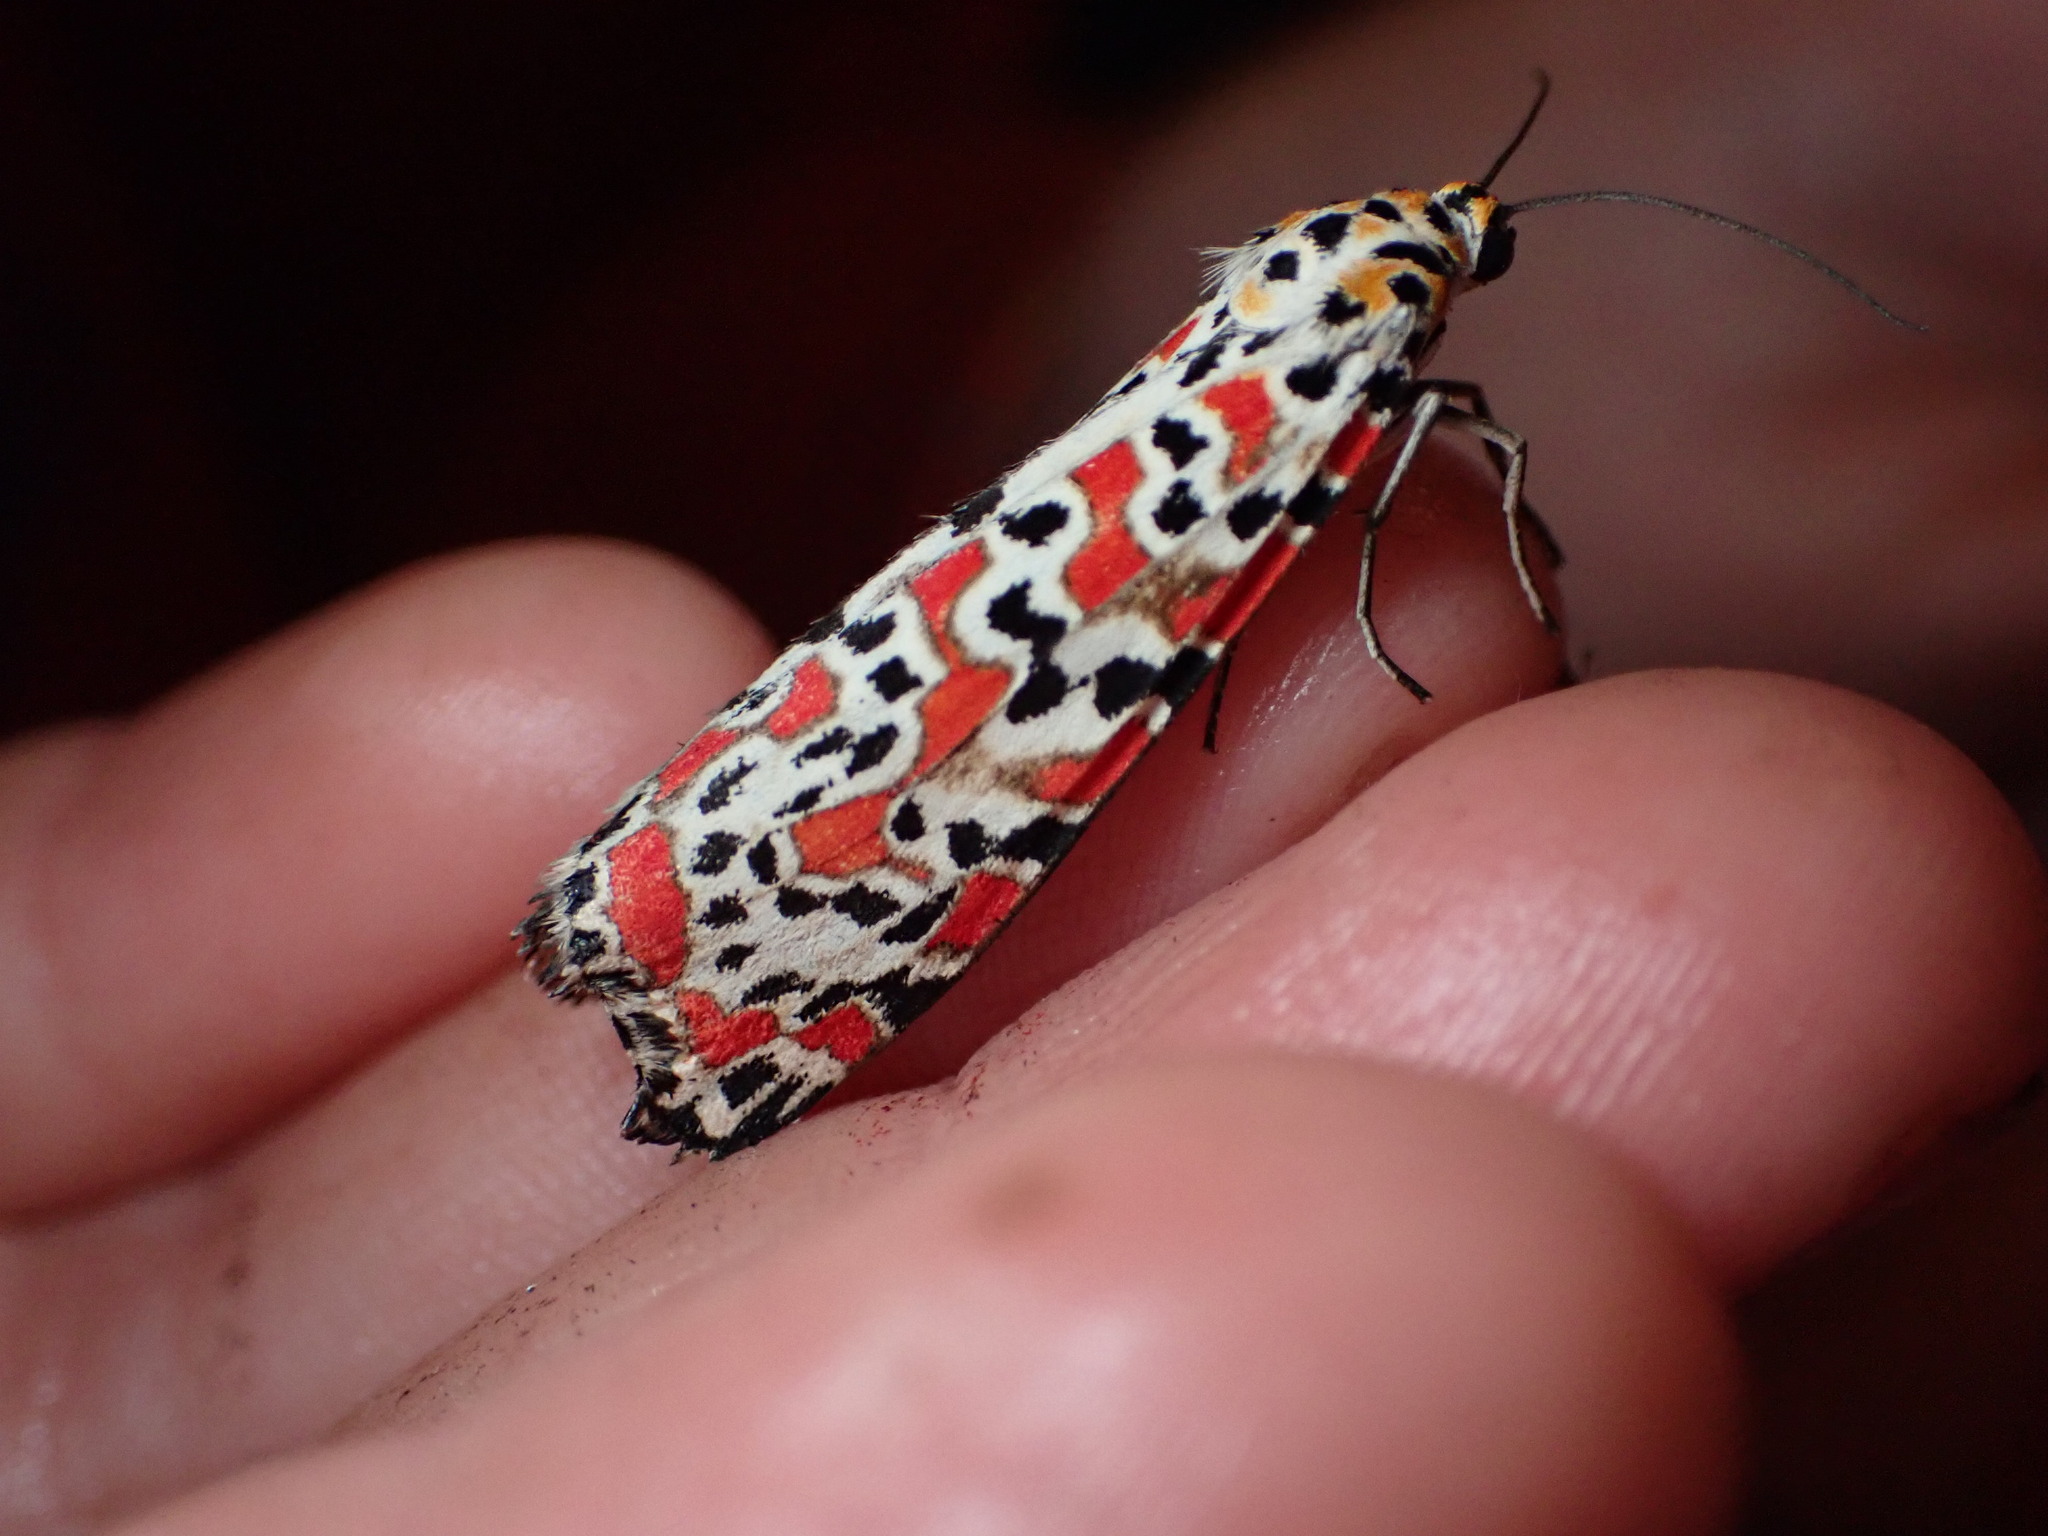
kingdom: Animalia
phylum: Arthropoda
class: Insecta
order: Lepidoptera
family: Erebidae
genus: Utetheisa
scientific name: Utetheisa pulchella
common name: Crimson speckled
